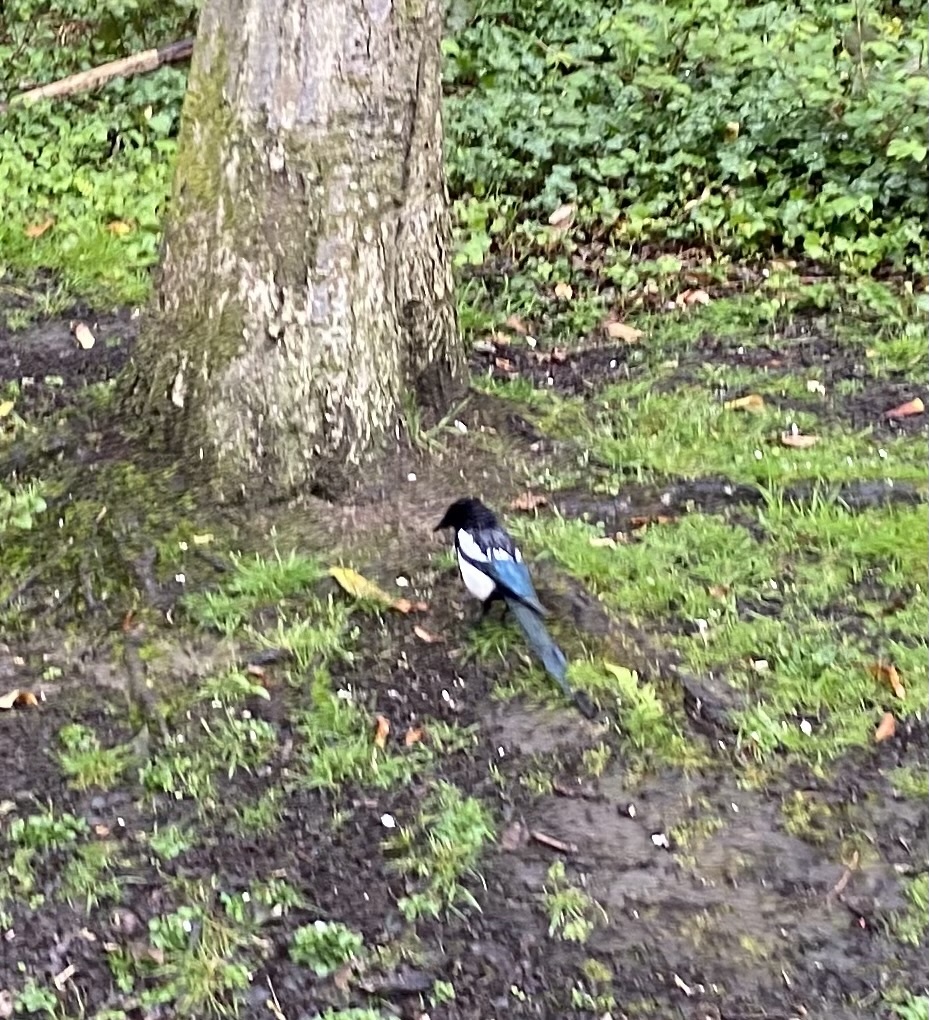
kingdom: Animalia
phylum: Chordata
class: Aves
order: Passeriformes
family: Corvidae
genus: Pica
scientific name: Pica pica
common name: Eurasian magpie
